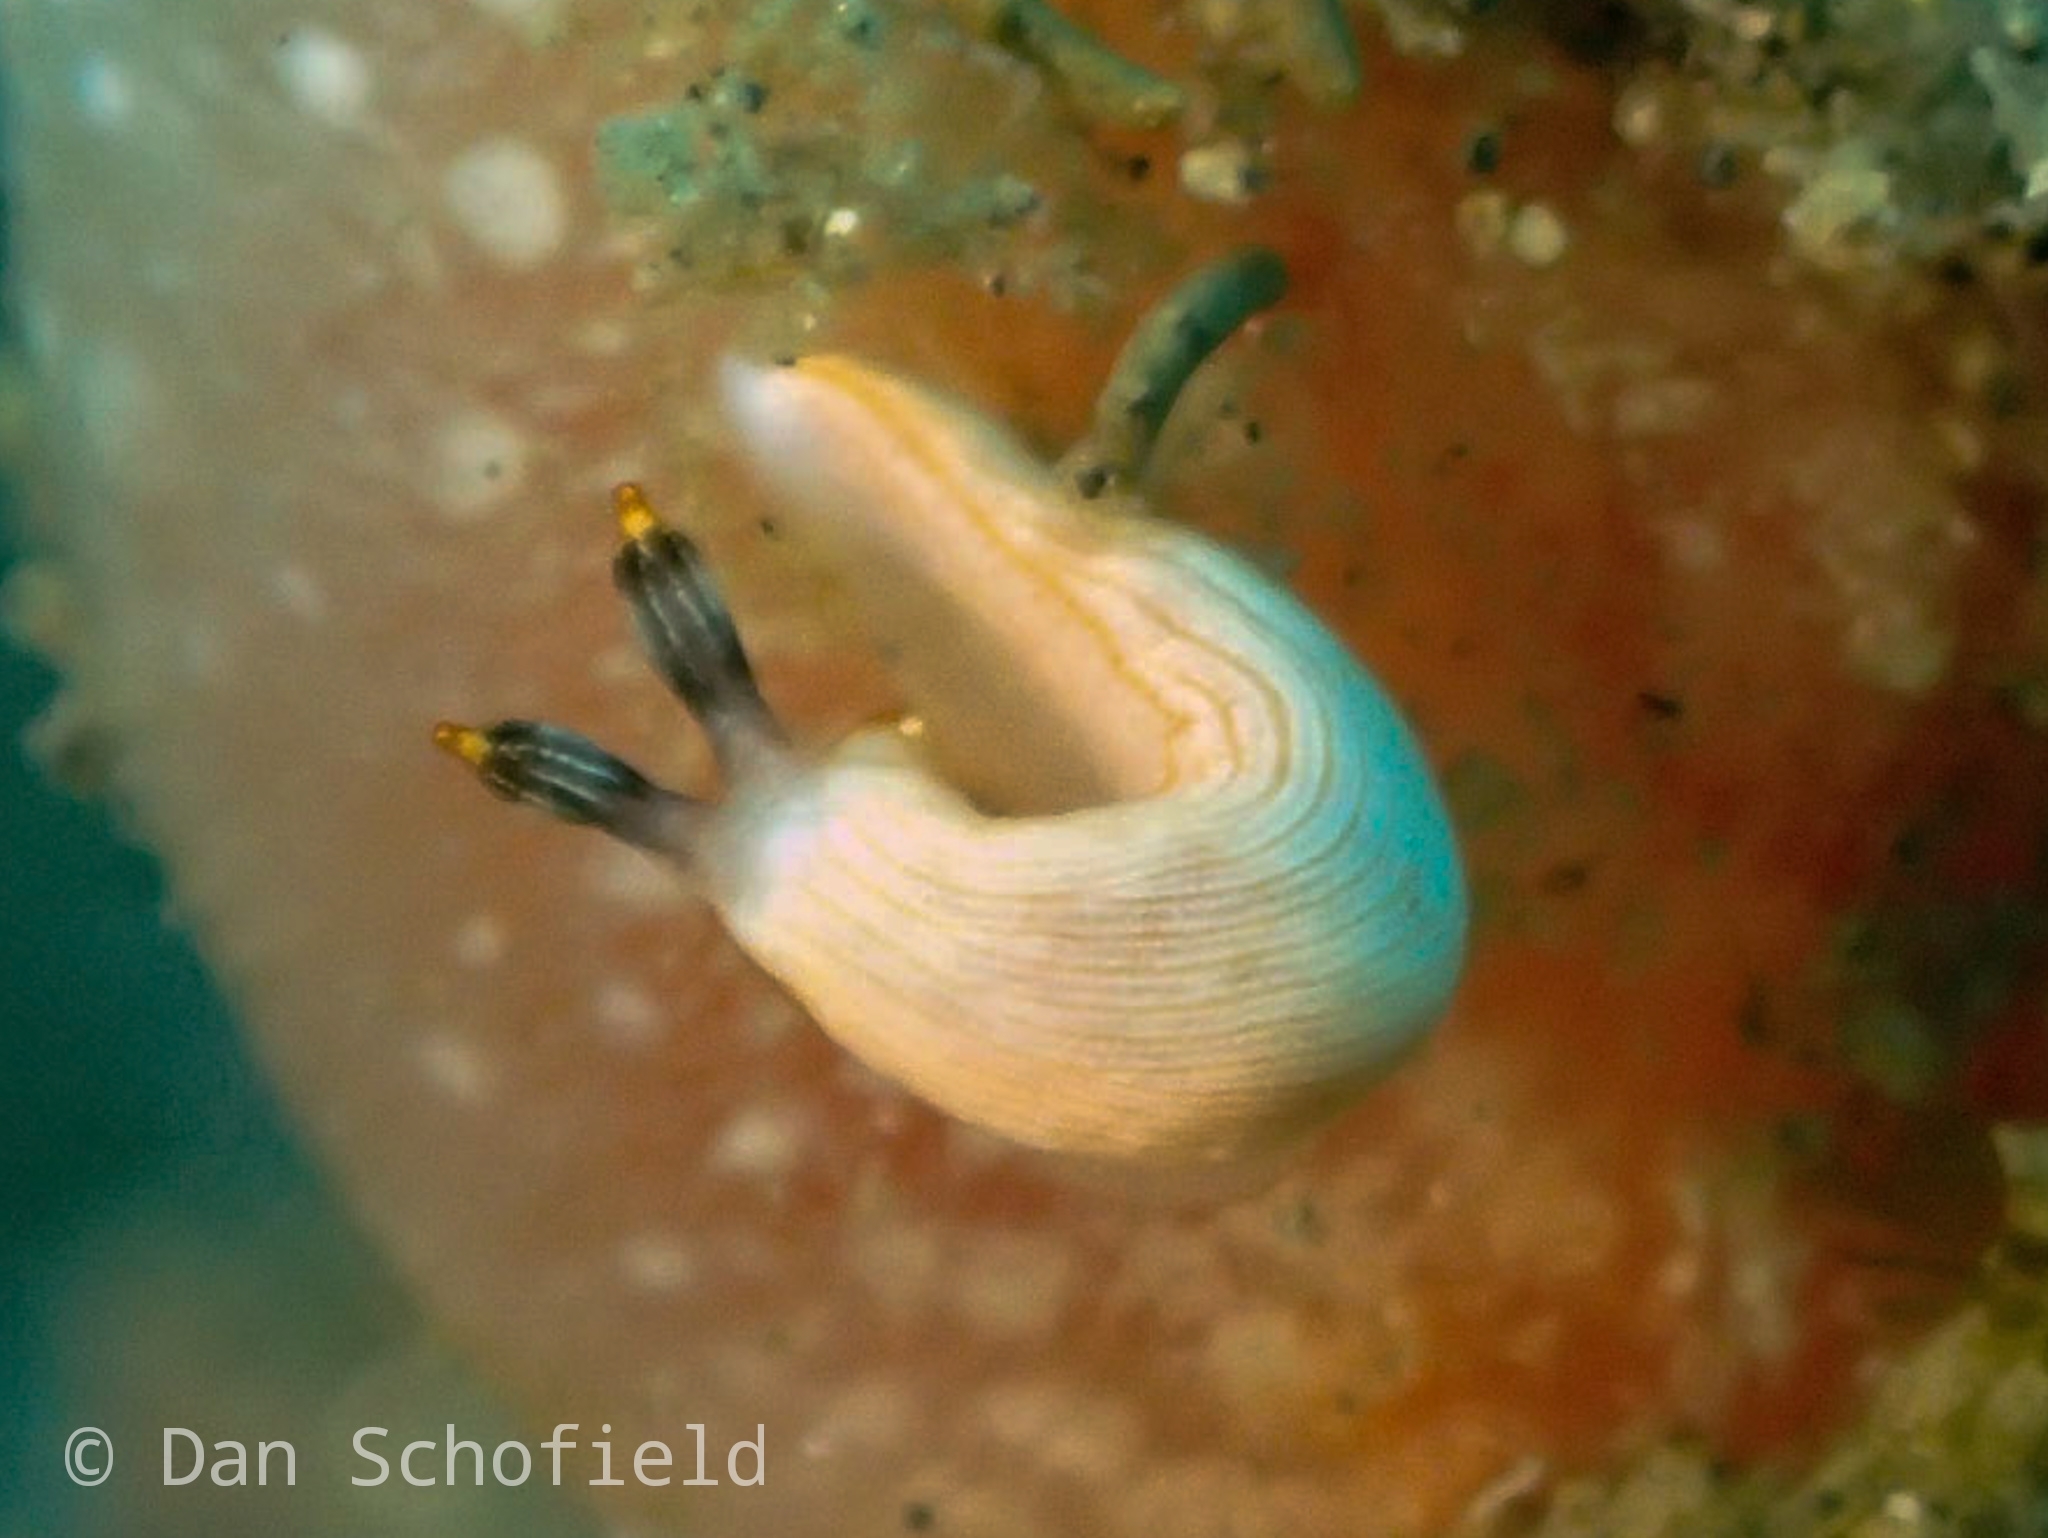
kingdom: Animalia
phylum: Mollusca
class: Gastropoda
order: Nudibranchia
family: Arminidae
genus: Dermatobranchus
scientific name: Dermatobranchus albus
